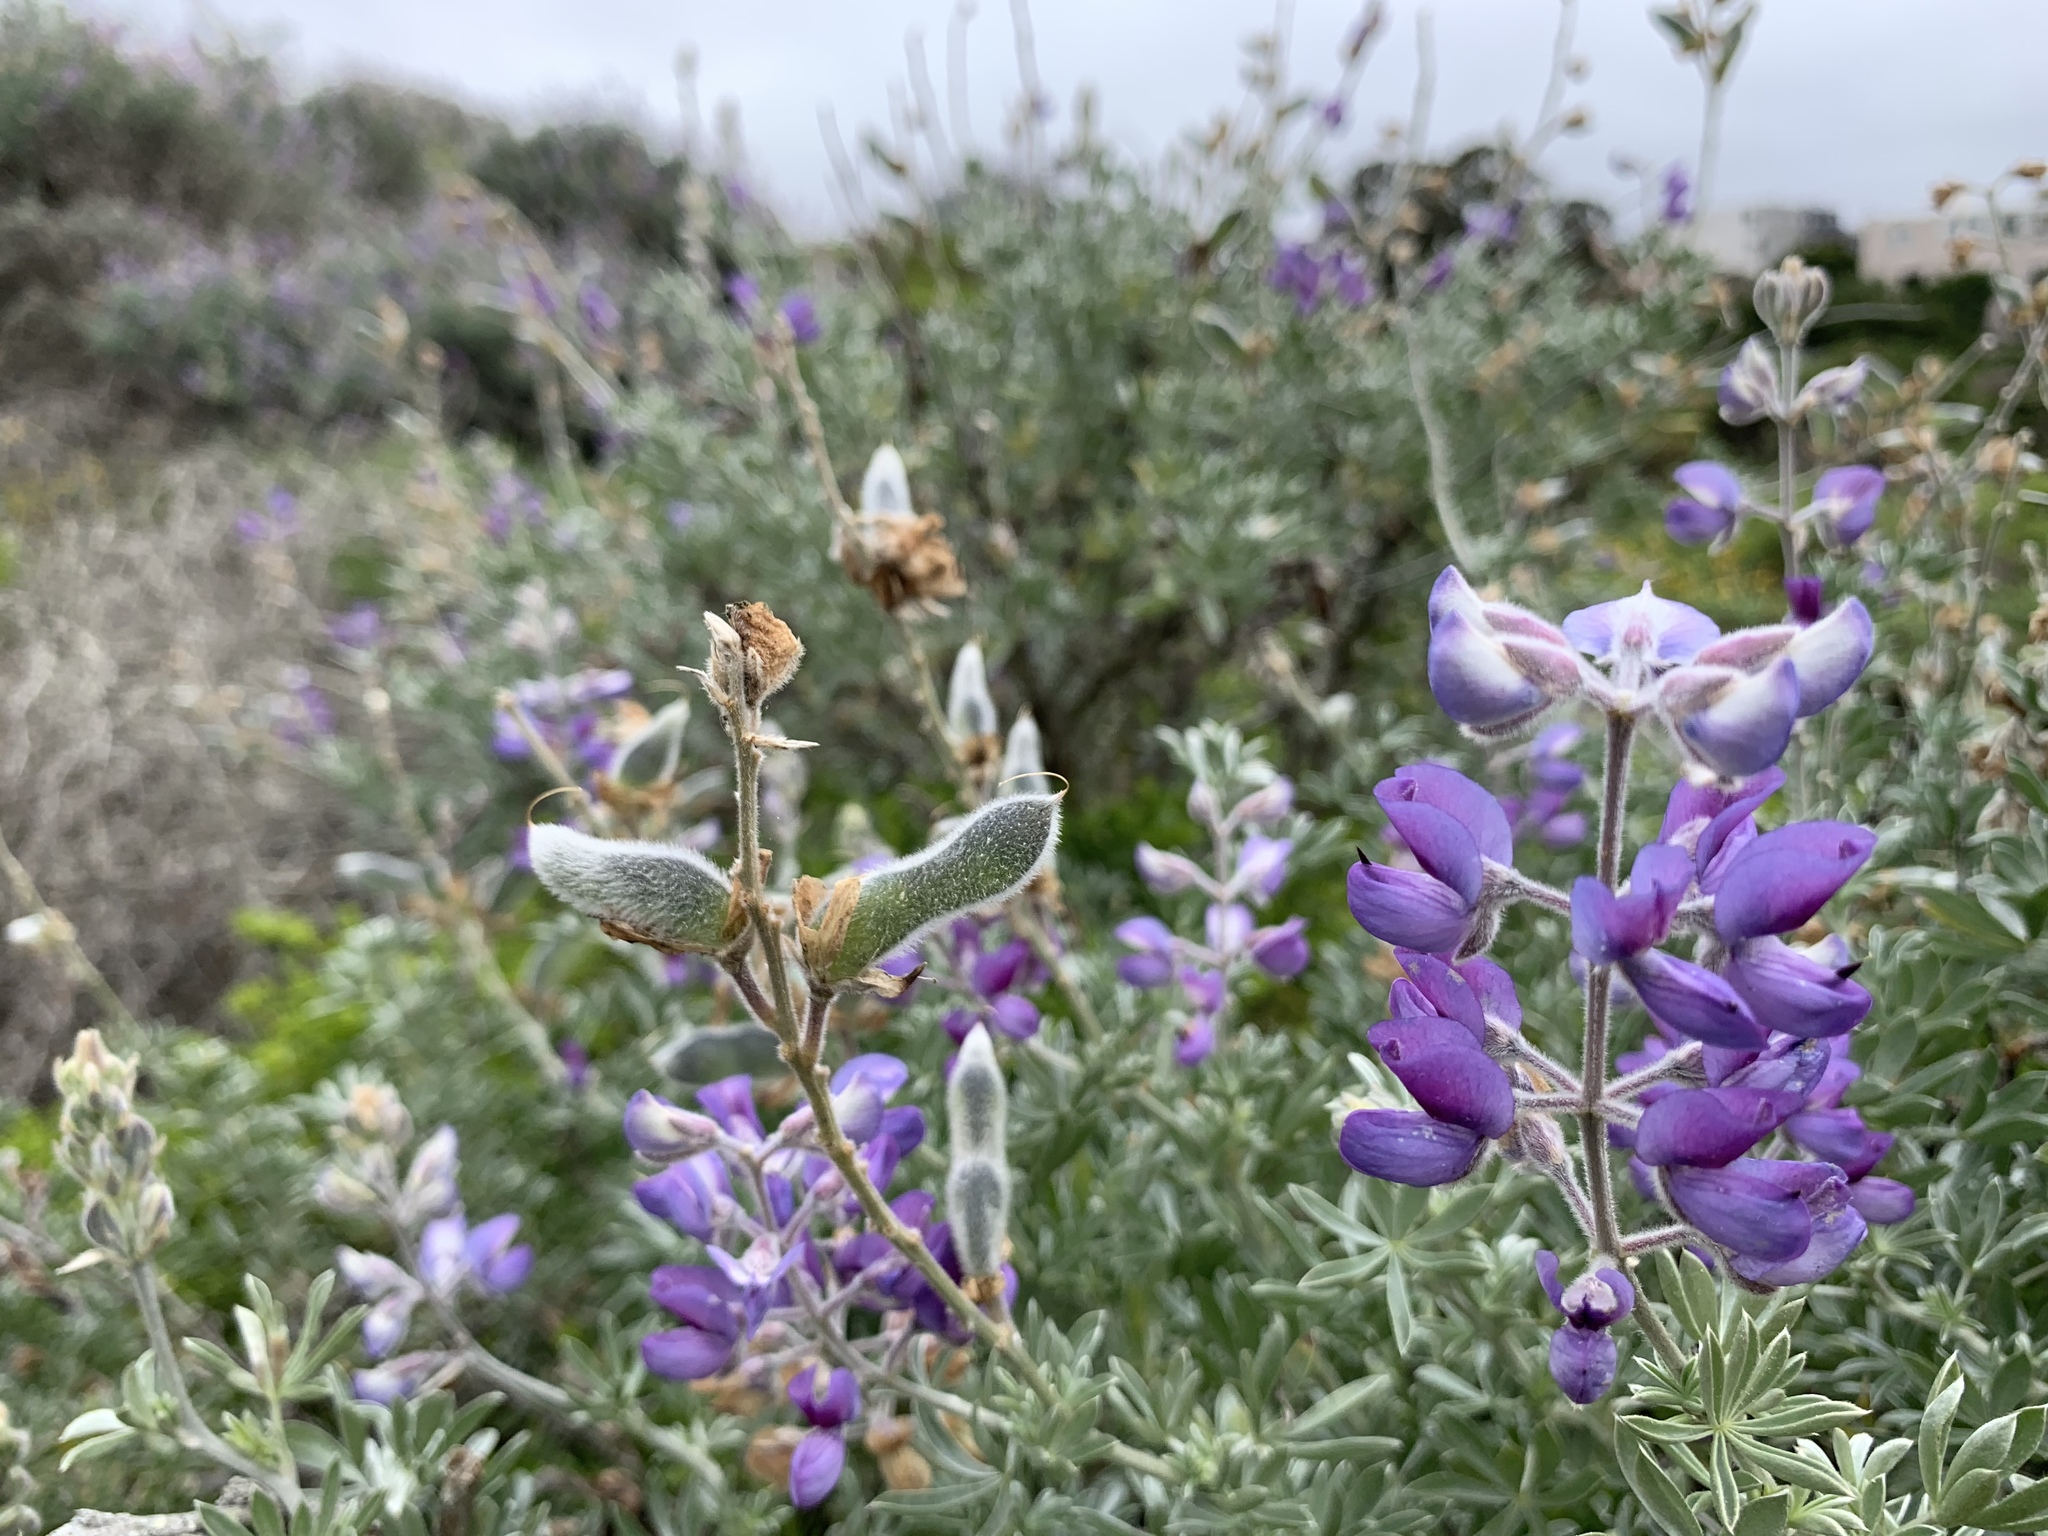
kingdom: Plantae
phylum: Tracheophyta
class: Magnoliopsida
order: Fabales
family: Fabaceae
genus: Lupinus
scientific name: Lupinus chamissonis
